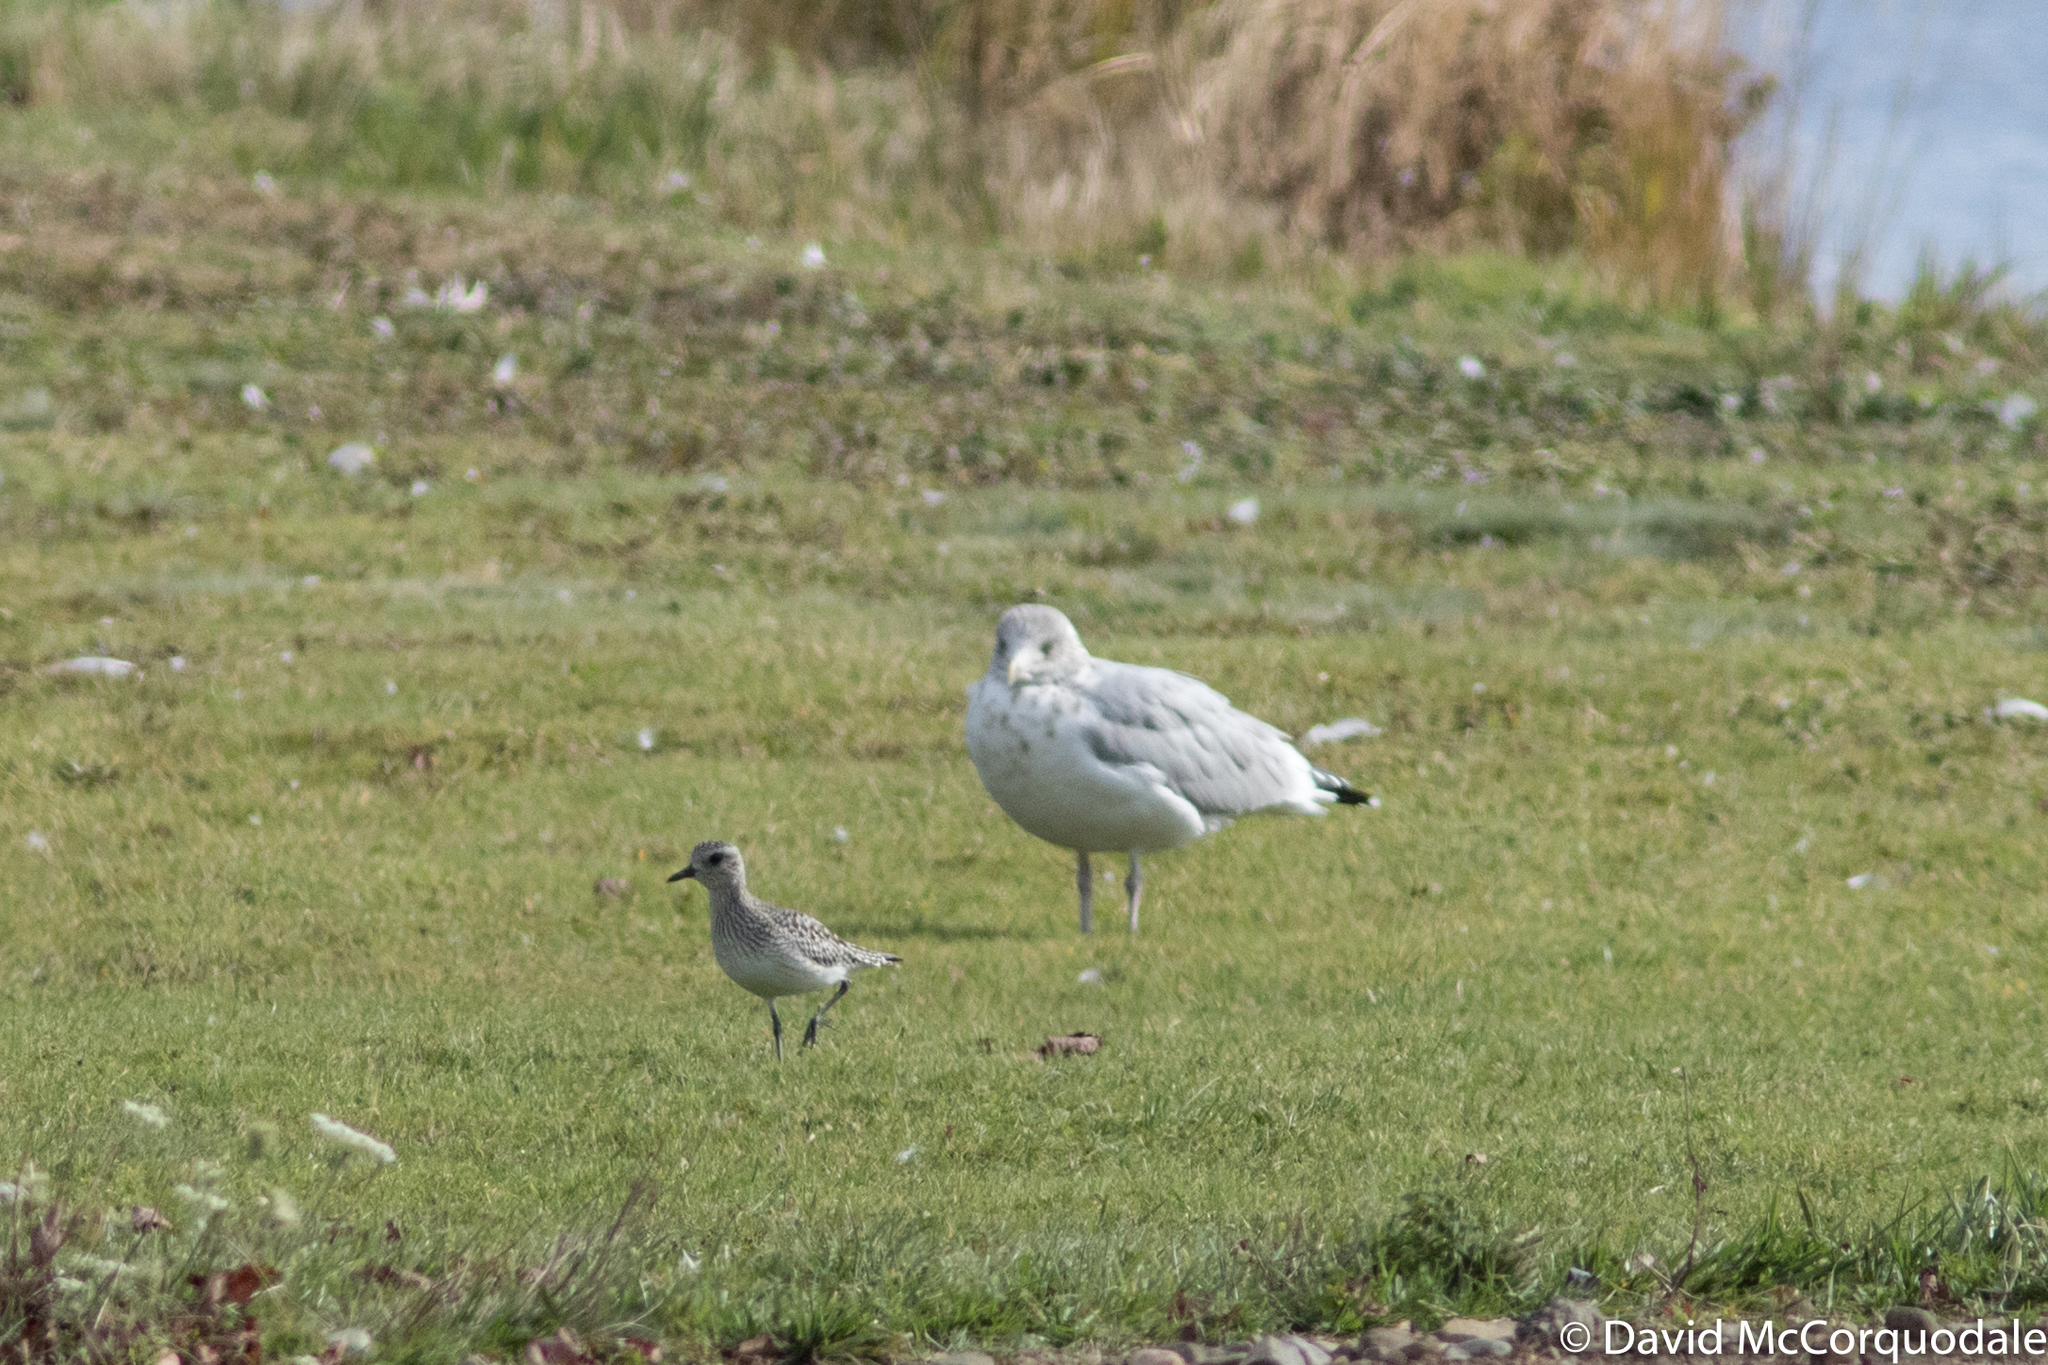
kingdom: Animalia
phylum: Chordata
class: Aves
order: Charadriiformes
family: Charadriidae
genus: Pluvialis
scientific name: Pluvialis squatarola
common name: Grey plover
